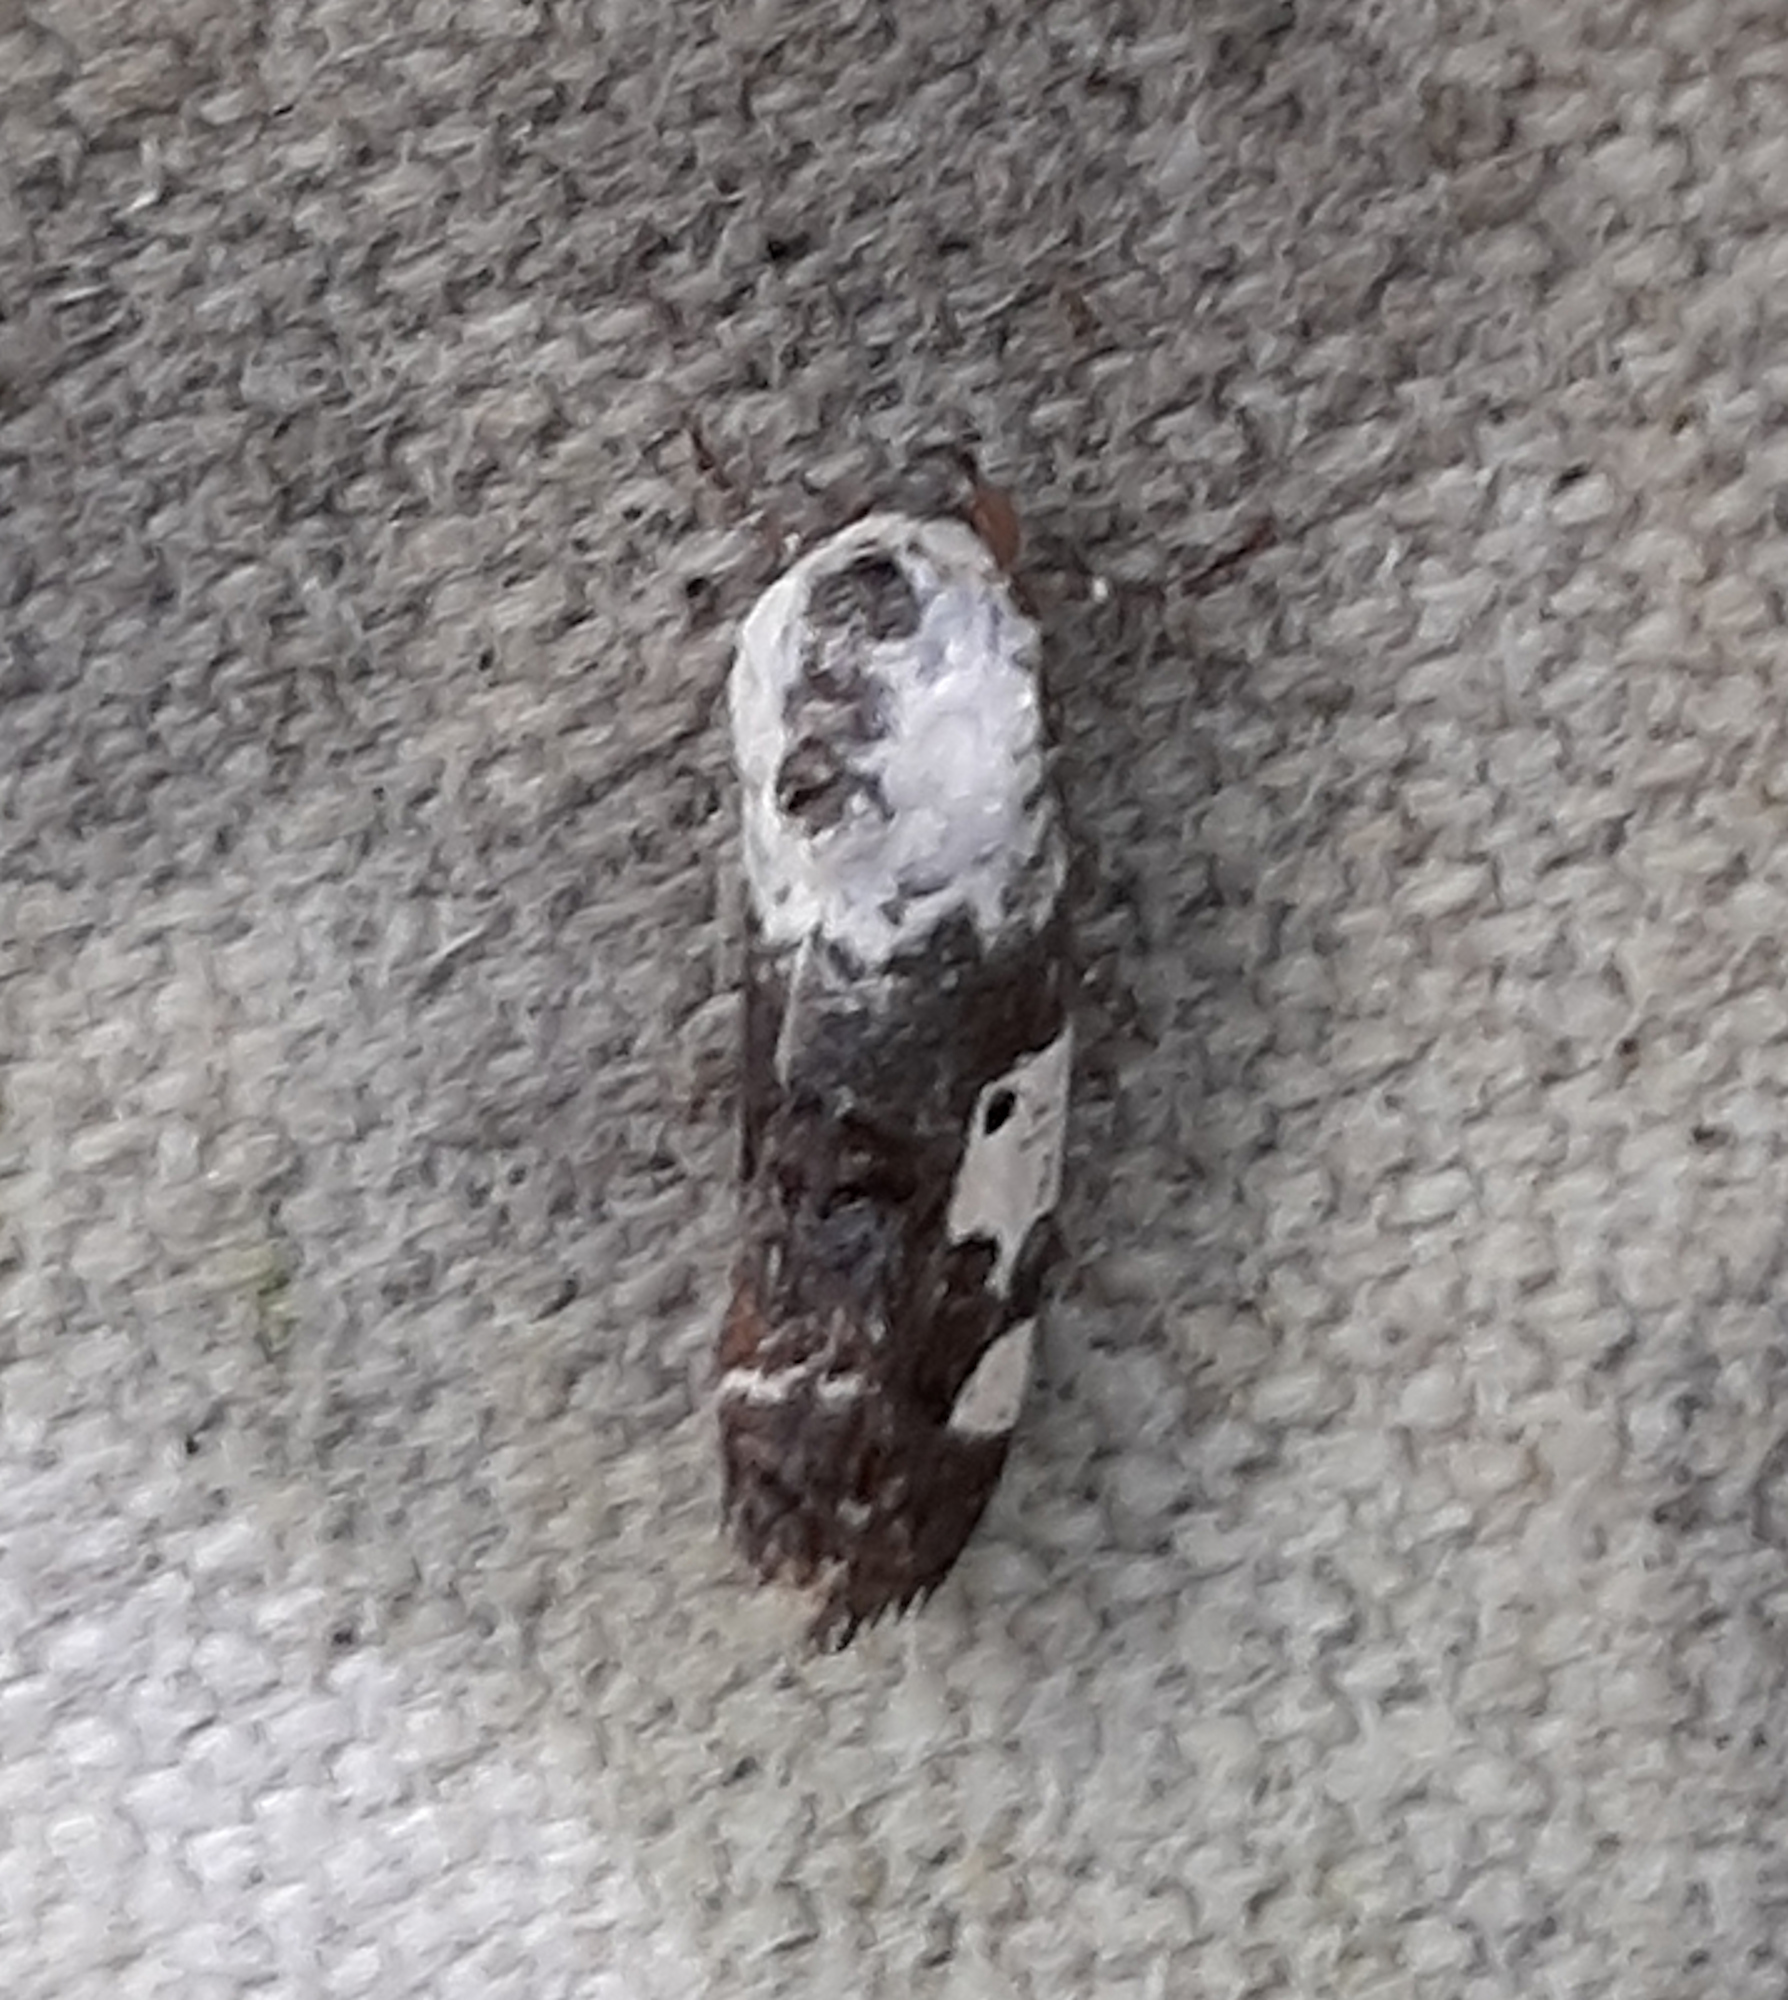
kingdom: Animalia
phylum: Arthropoda
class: Insecta
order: Lepidoptera
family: Noctuidae
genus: Acontia
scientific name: Acontia aprica
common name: Nun
